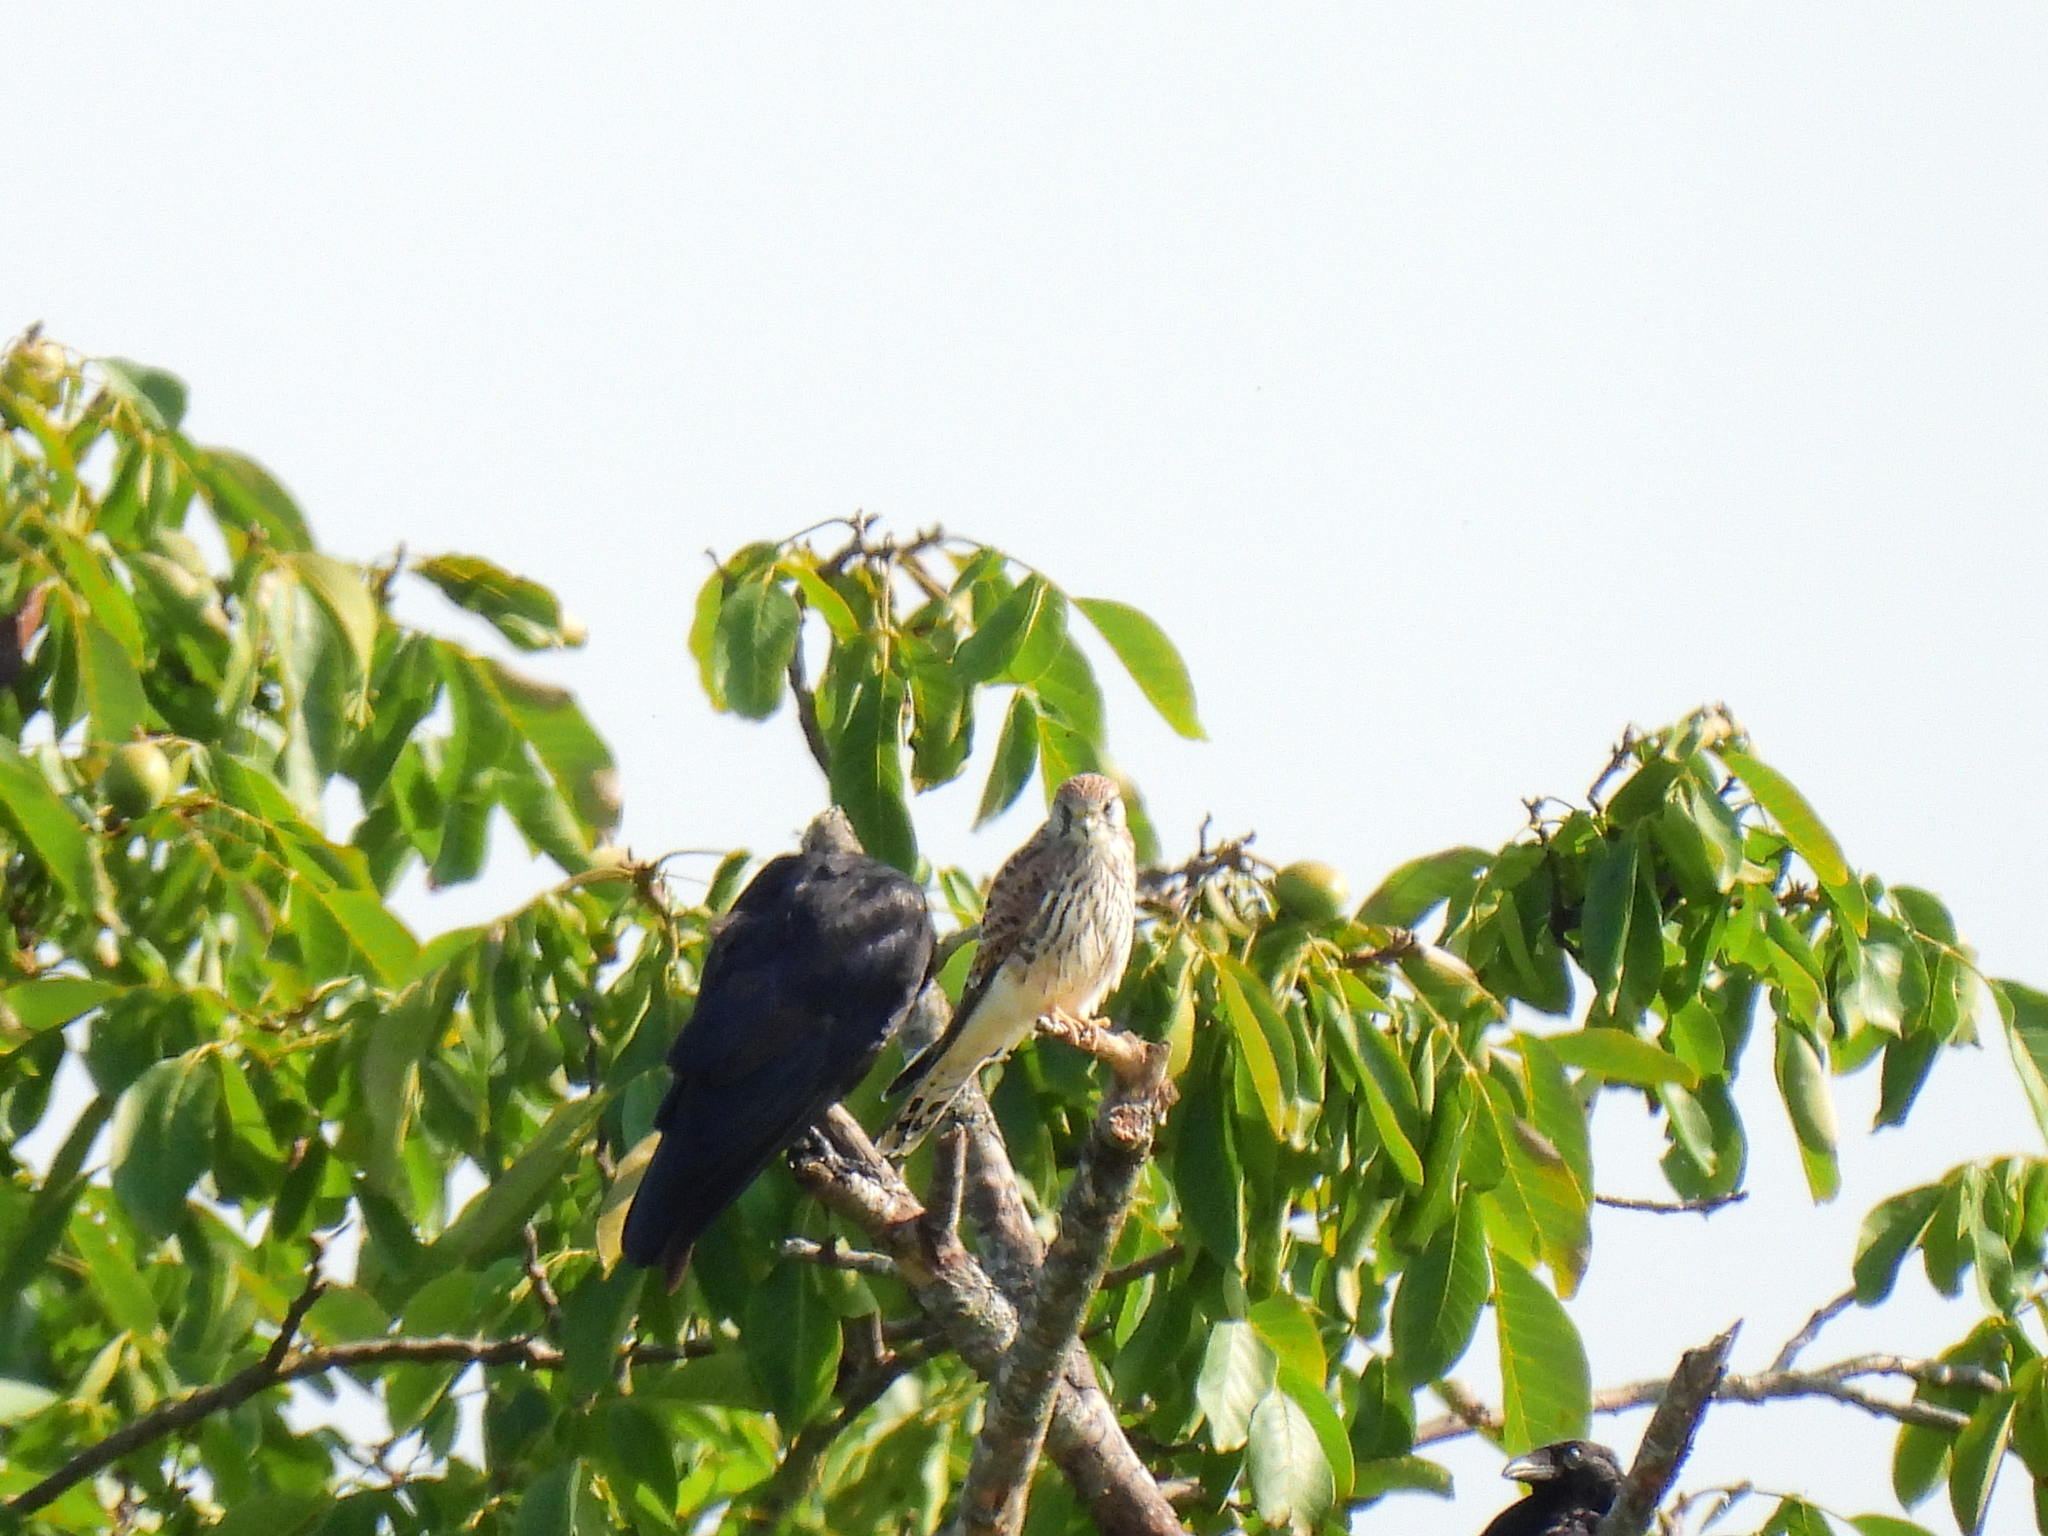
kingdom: Animalia
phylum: Chordata
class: Aves
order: Falconiformes
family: Falconidae
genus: Falco
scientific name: Falco tinnunculus
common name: Common kestrel
